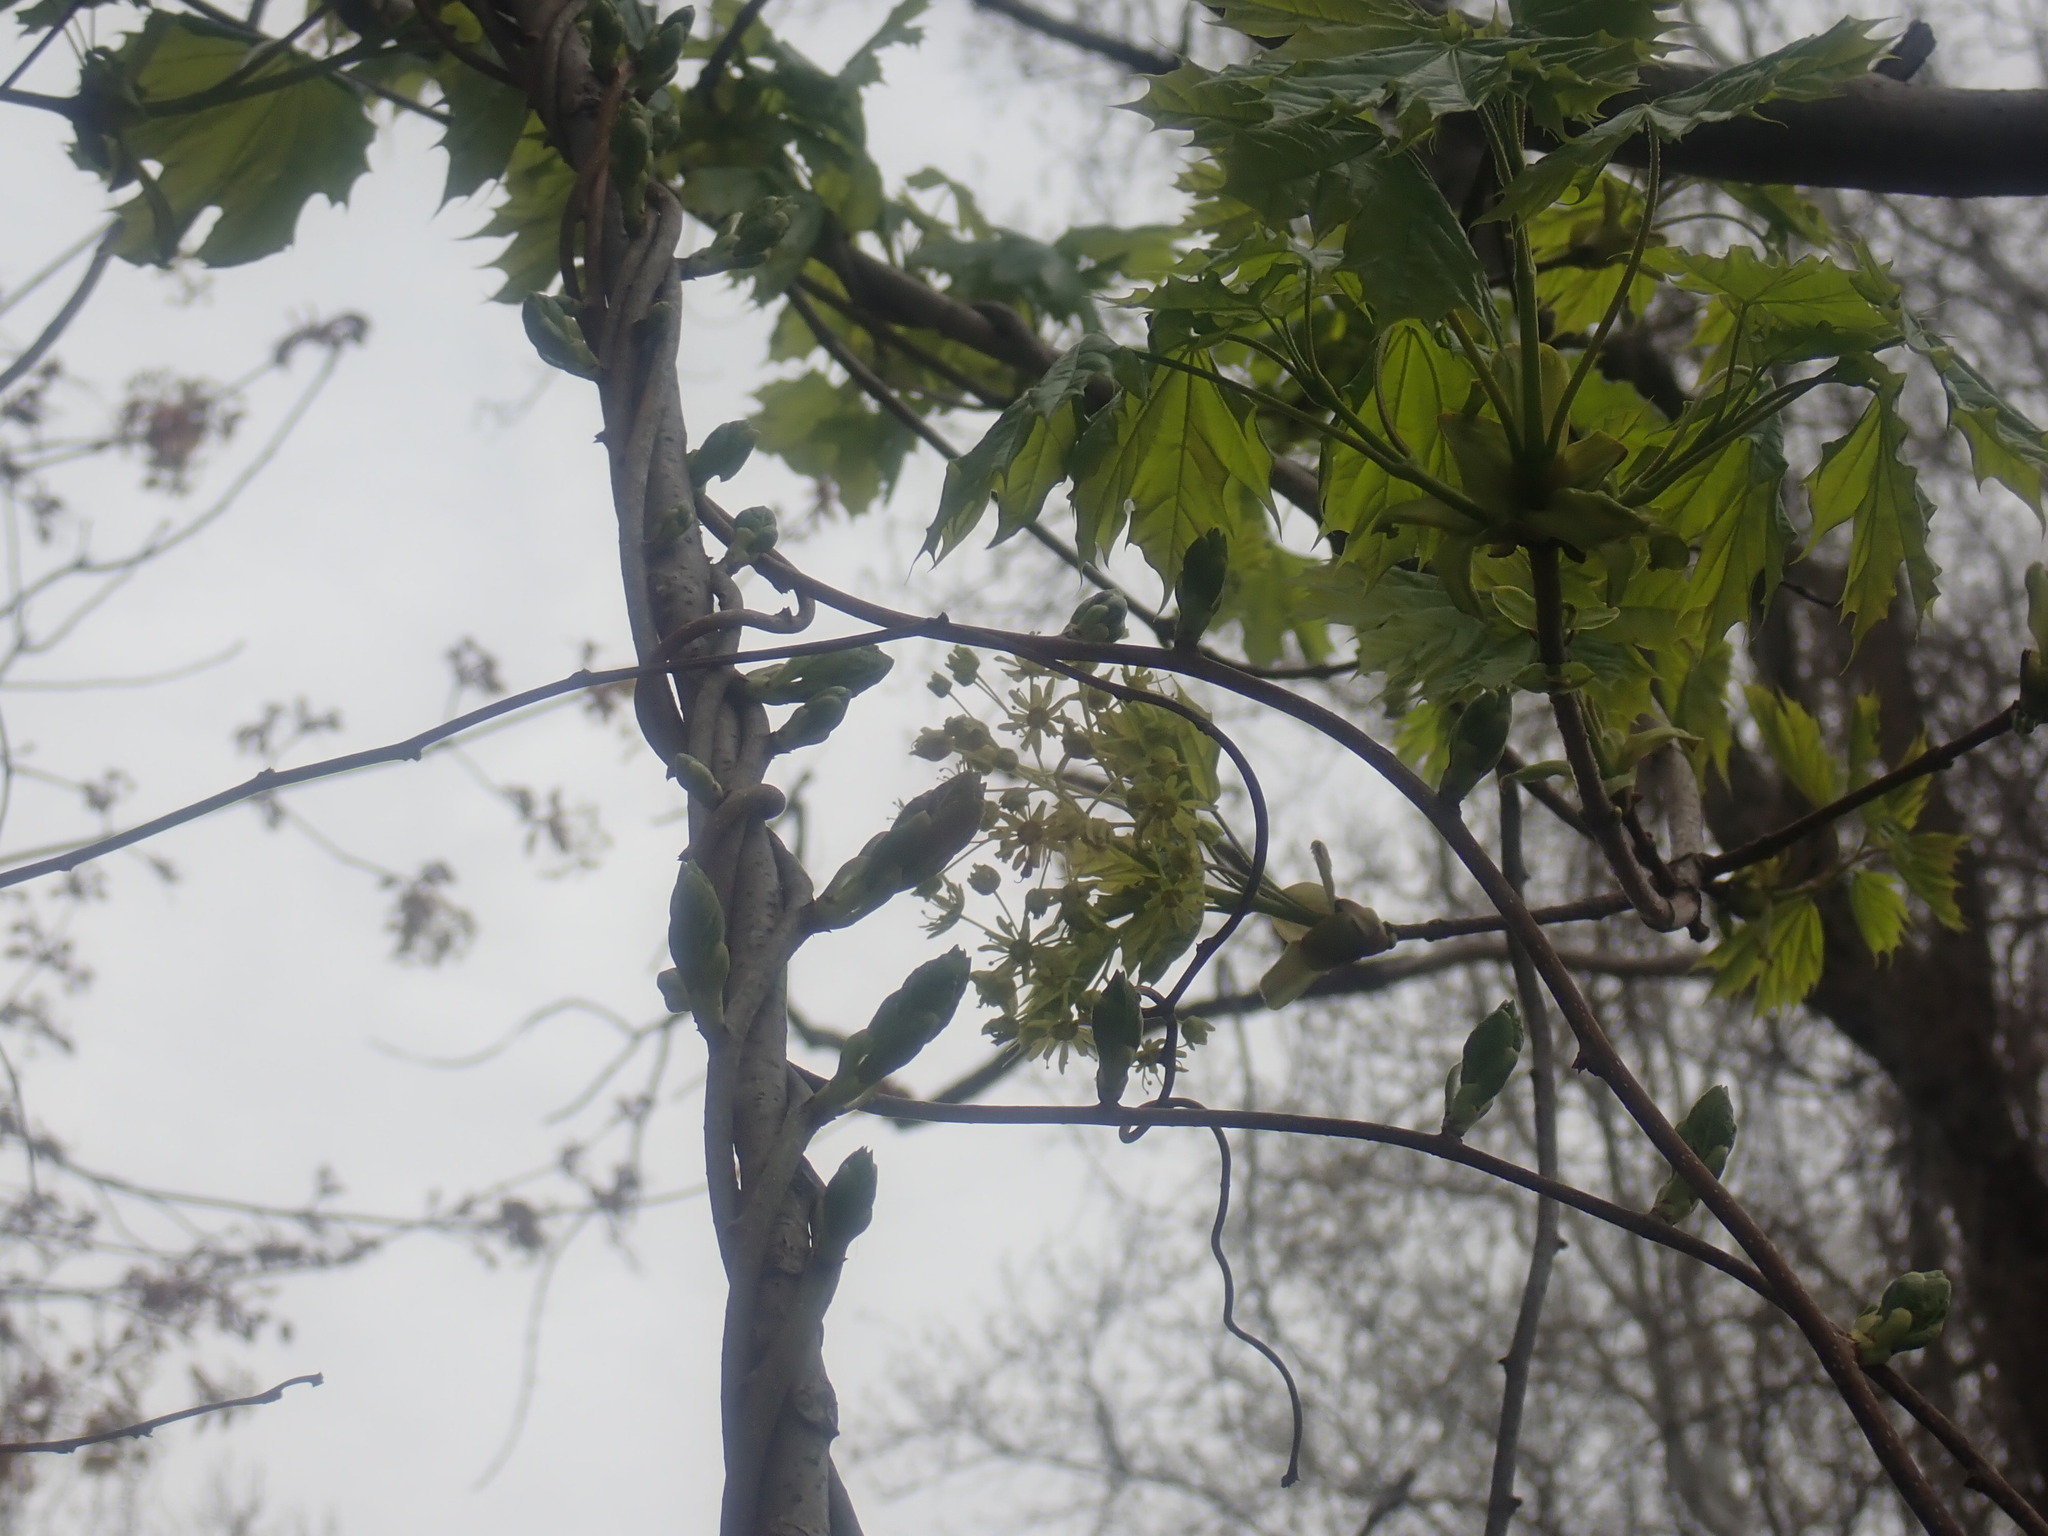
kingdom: Plantae
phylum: Tracheophyta
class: Magnoliopsida
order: Sapindales
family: Sapindaceae
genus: Acer
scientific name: Acer platanoides
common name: Norway maple
